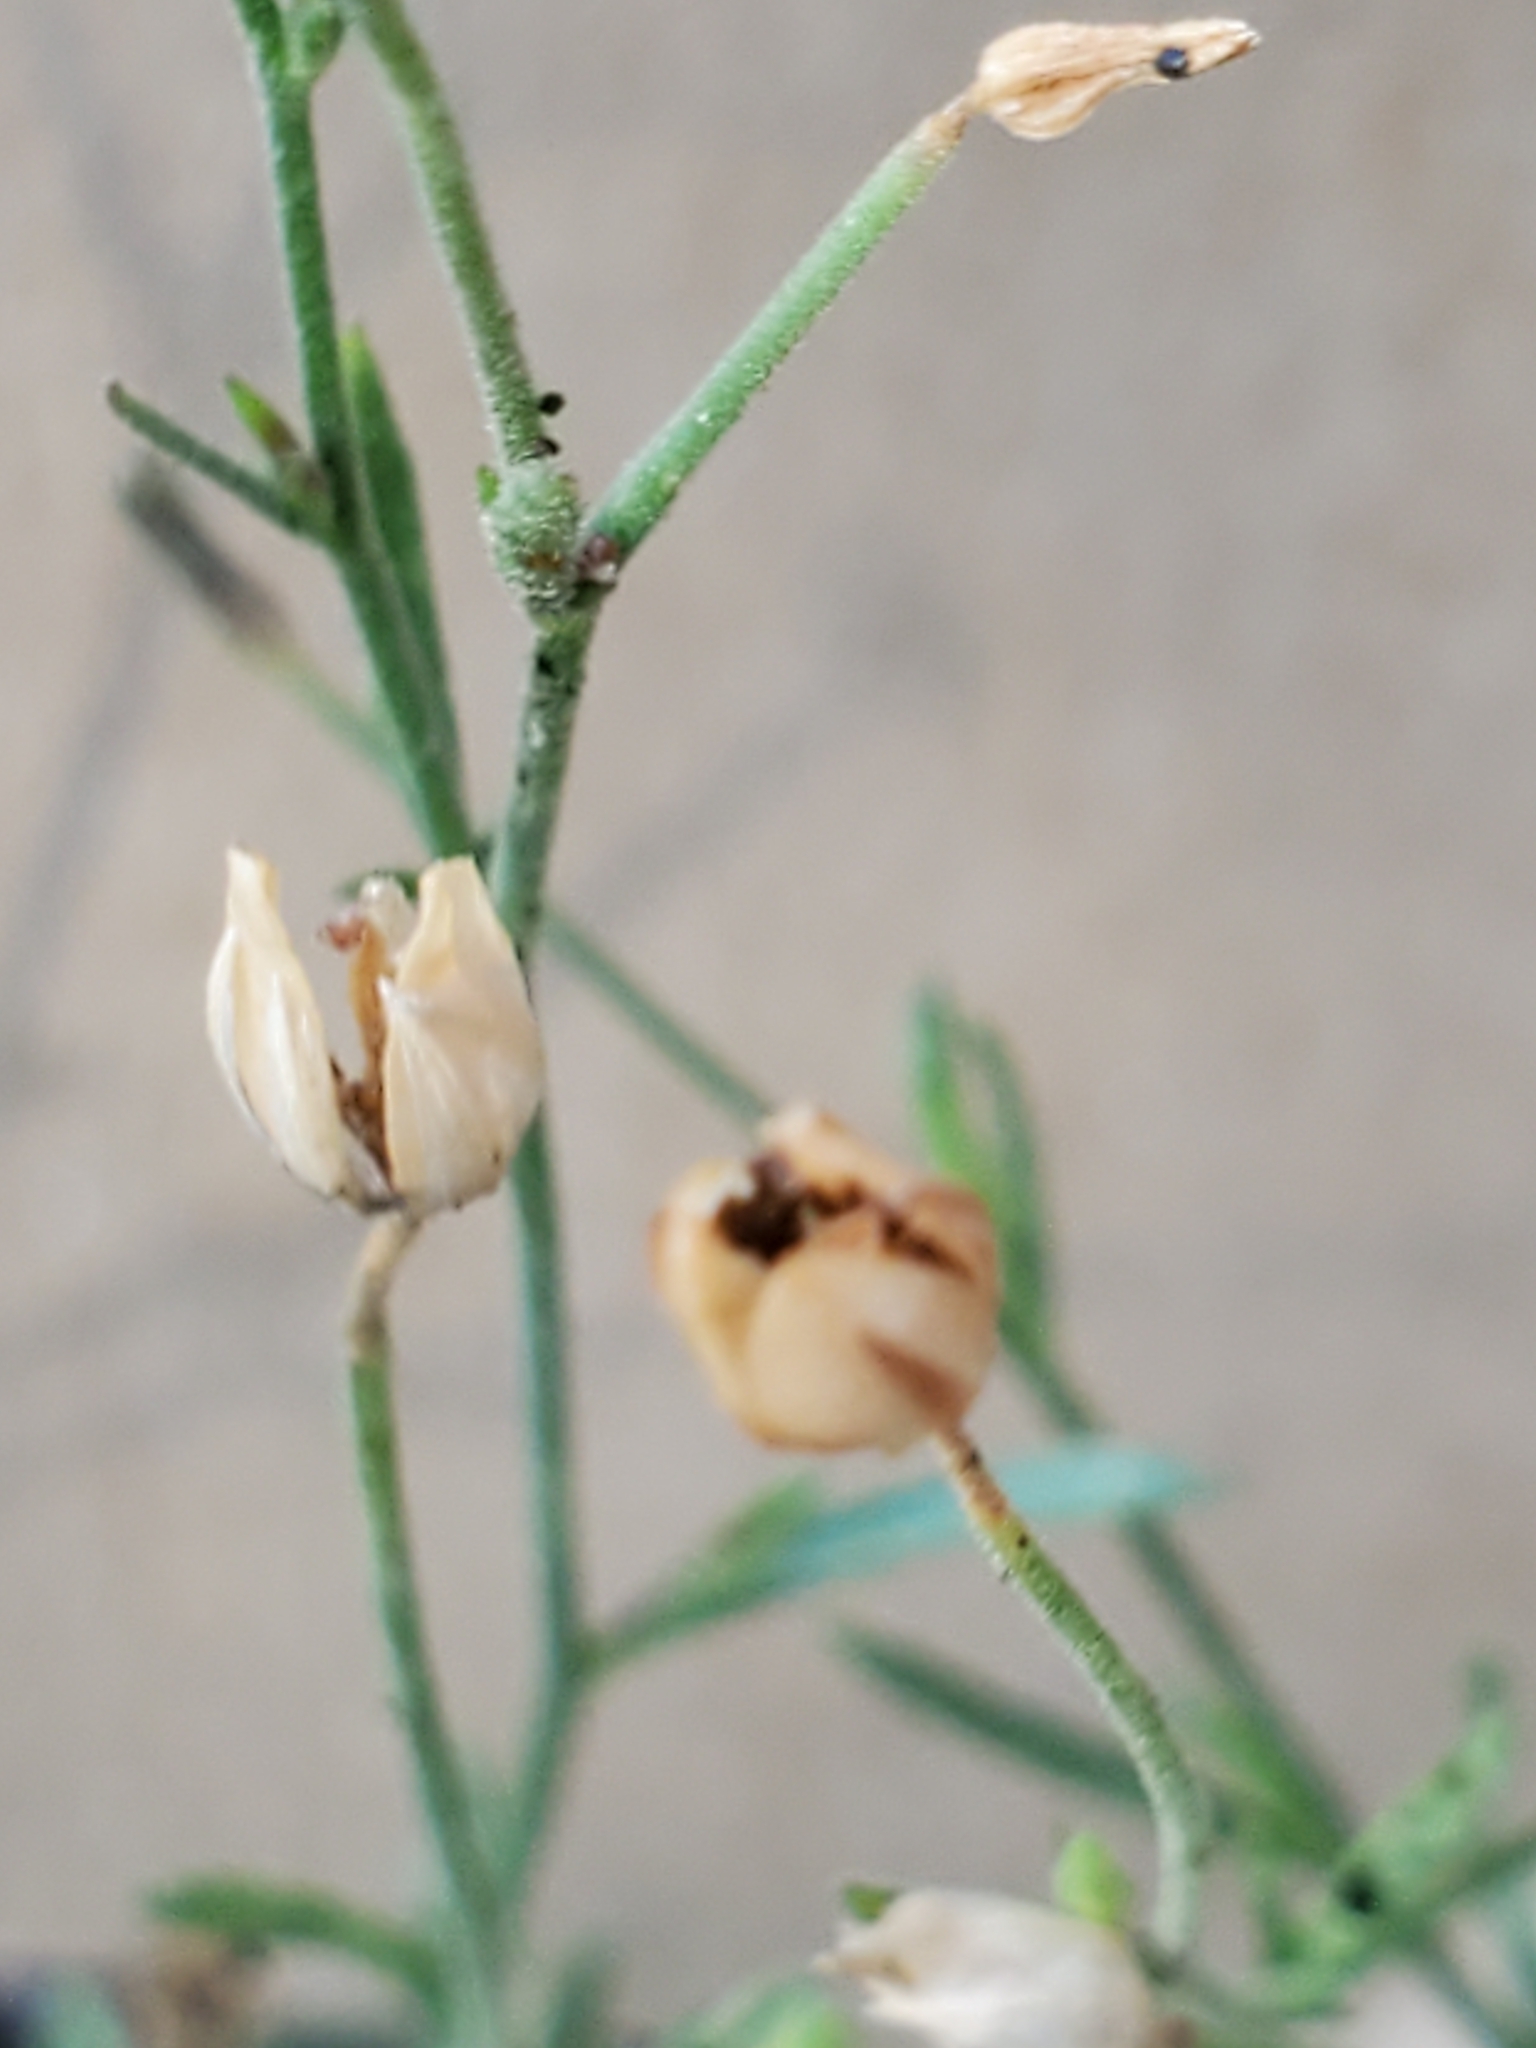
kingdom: Plantae
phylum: Tracheophyta
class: Magnoliopsida
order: Ericales
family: Polemoniaceae
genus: Giliastrum
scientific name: Giliastrum incisum
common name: Splitleaf gilia
